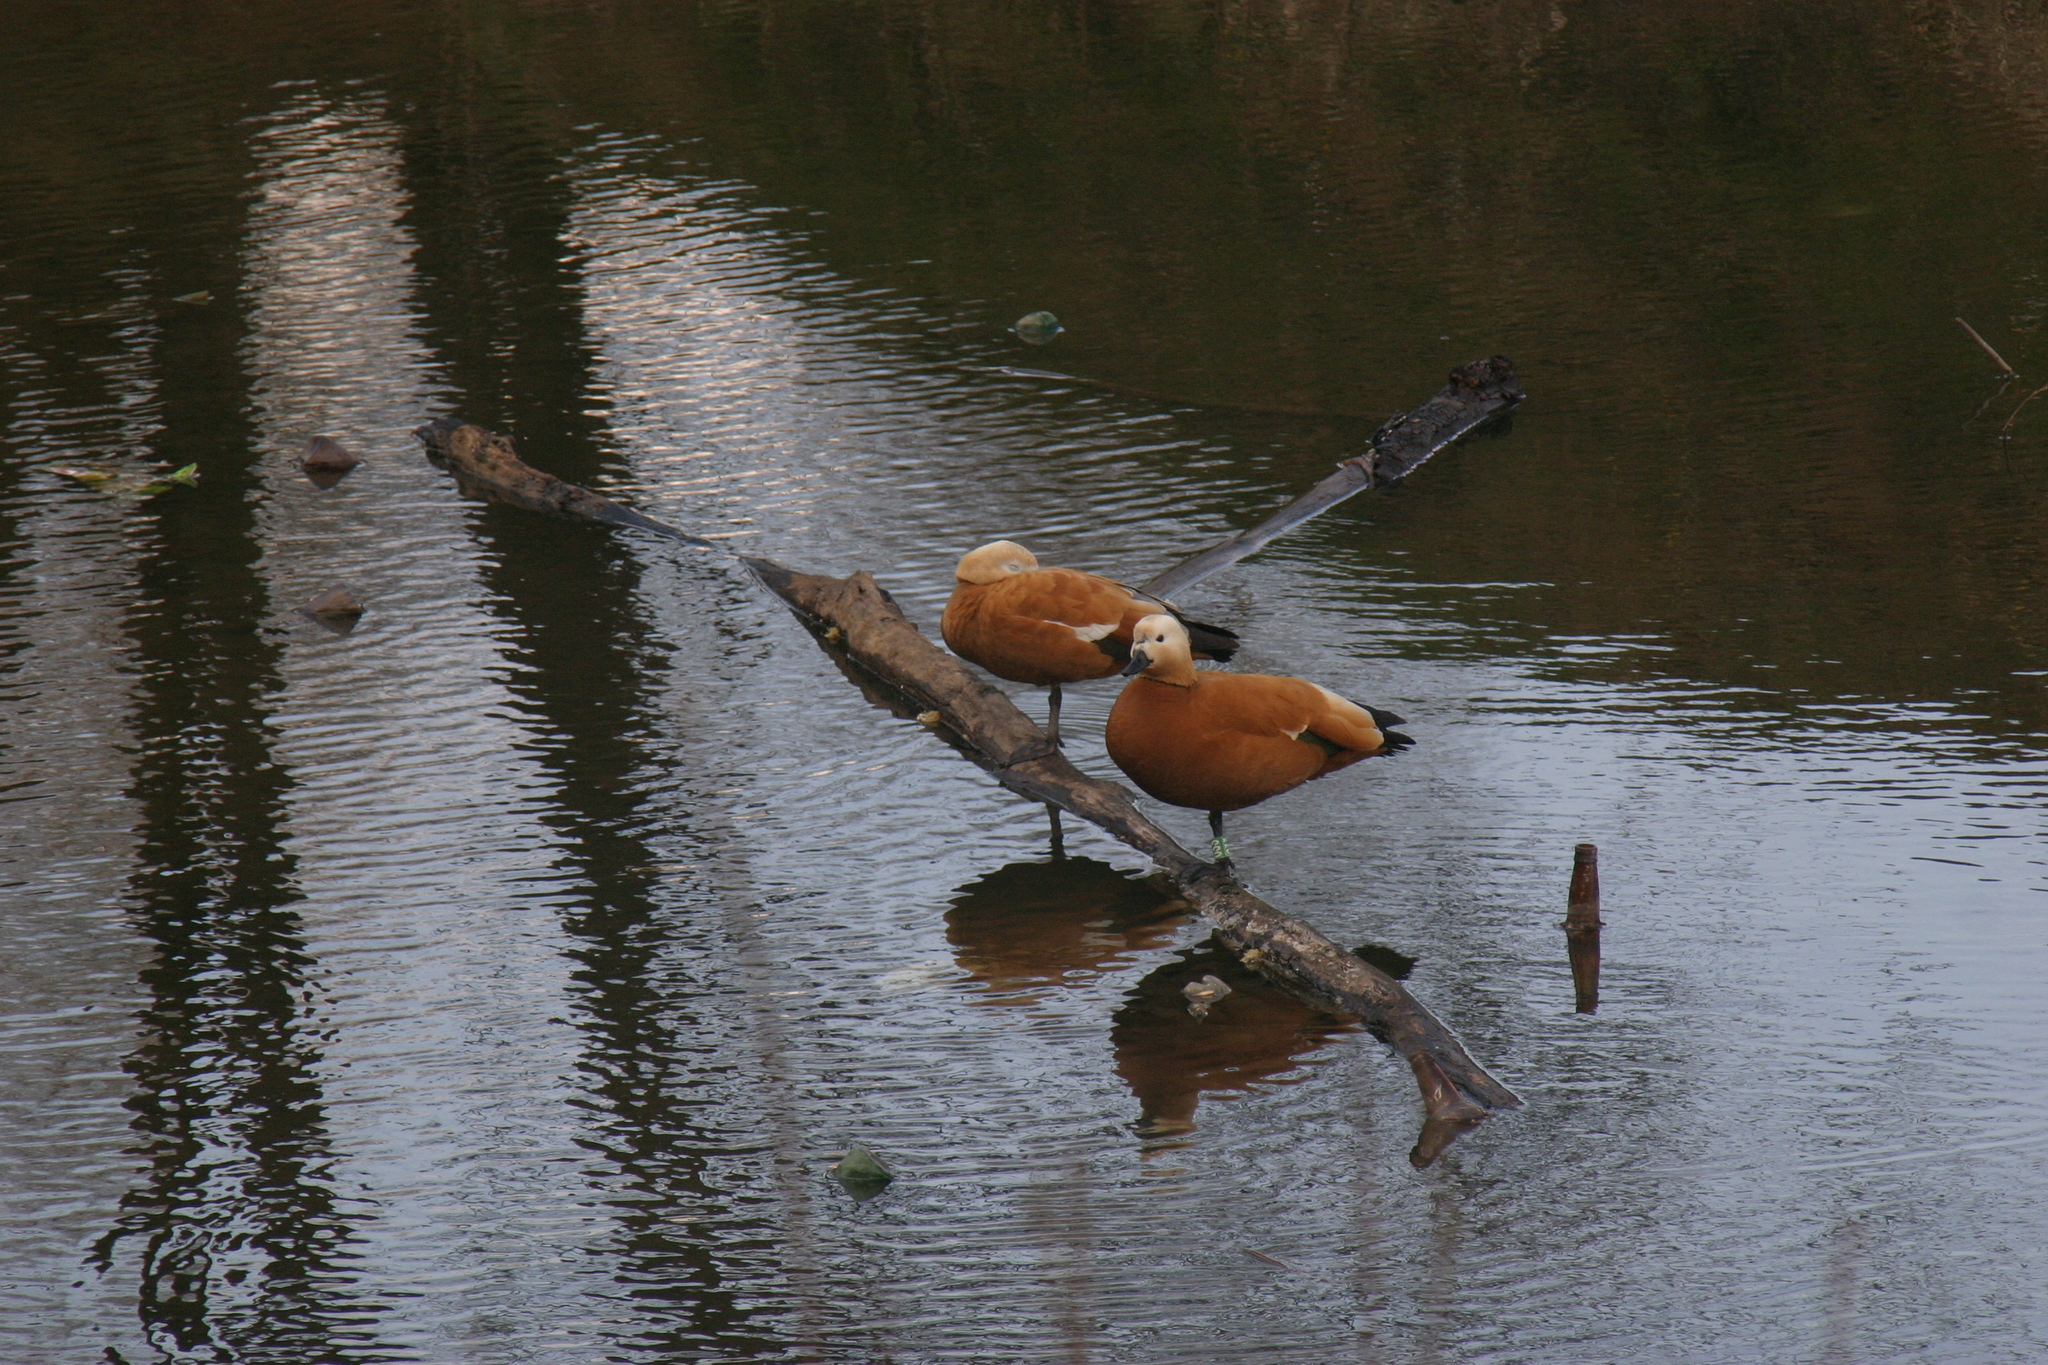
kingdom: Animalia
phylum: Chordata
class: Aves
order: Anseriformes
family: Anatidae
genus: Tadorna
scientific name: Tadorna ferruginea
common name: Ruddy shelduck
